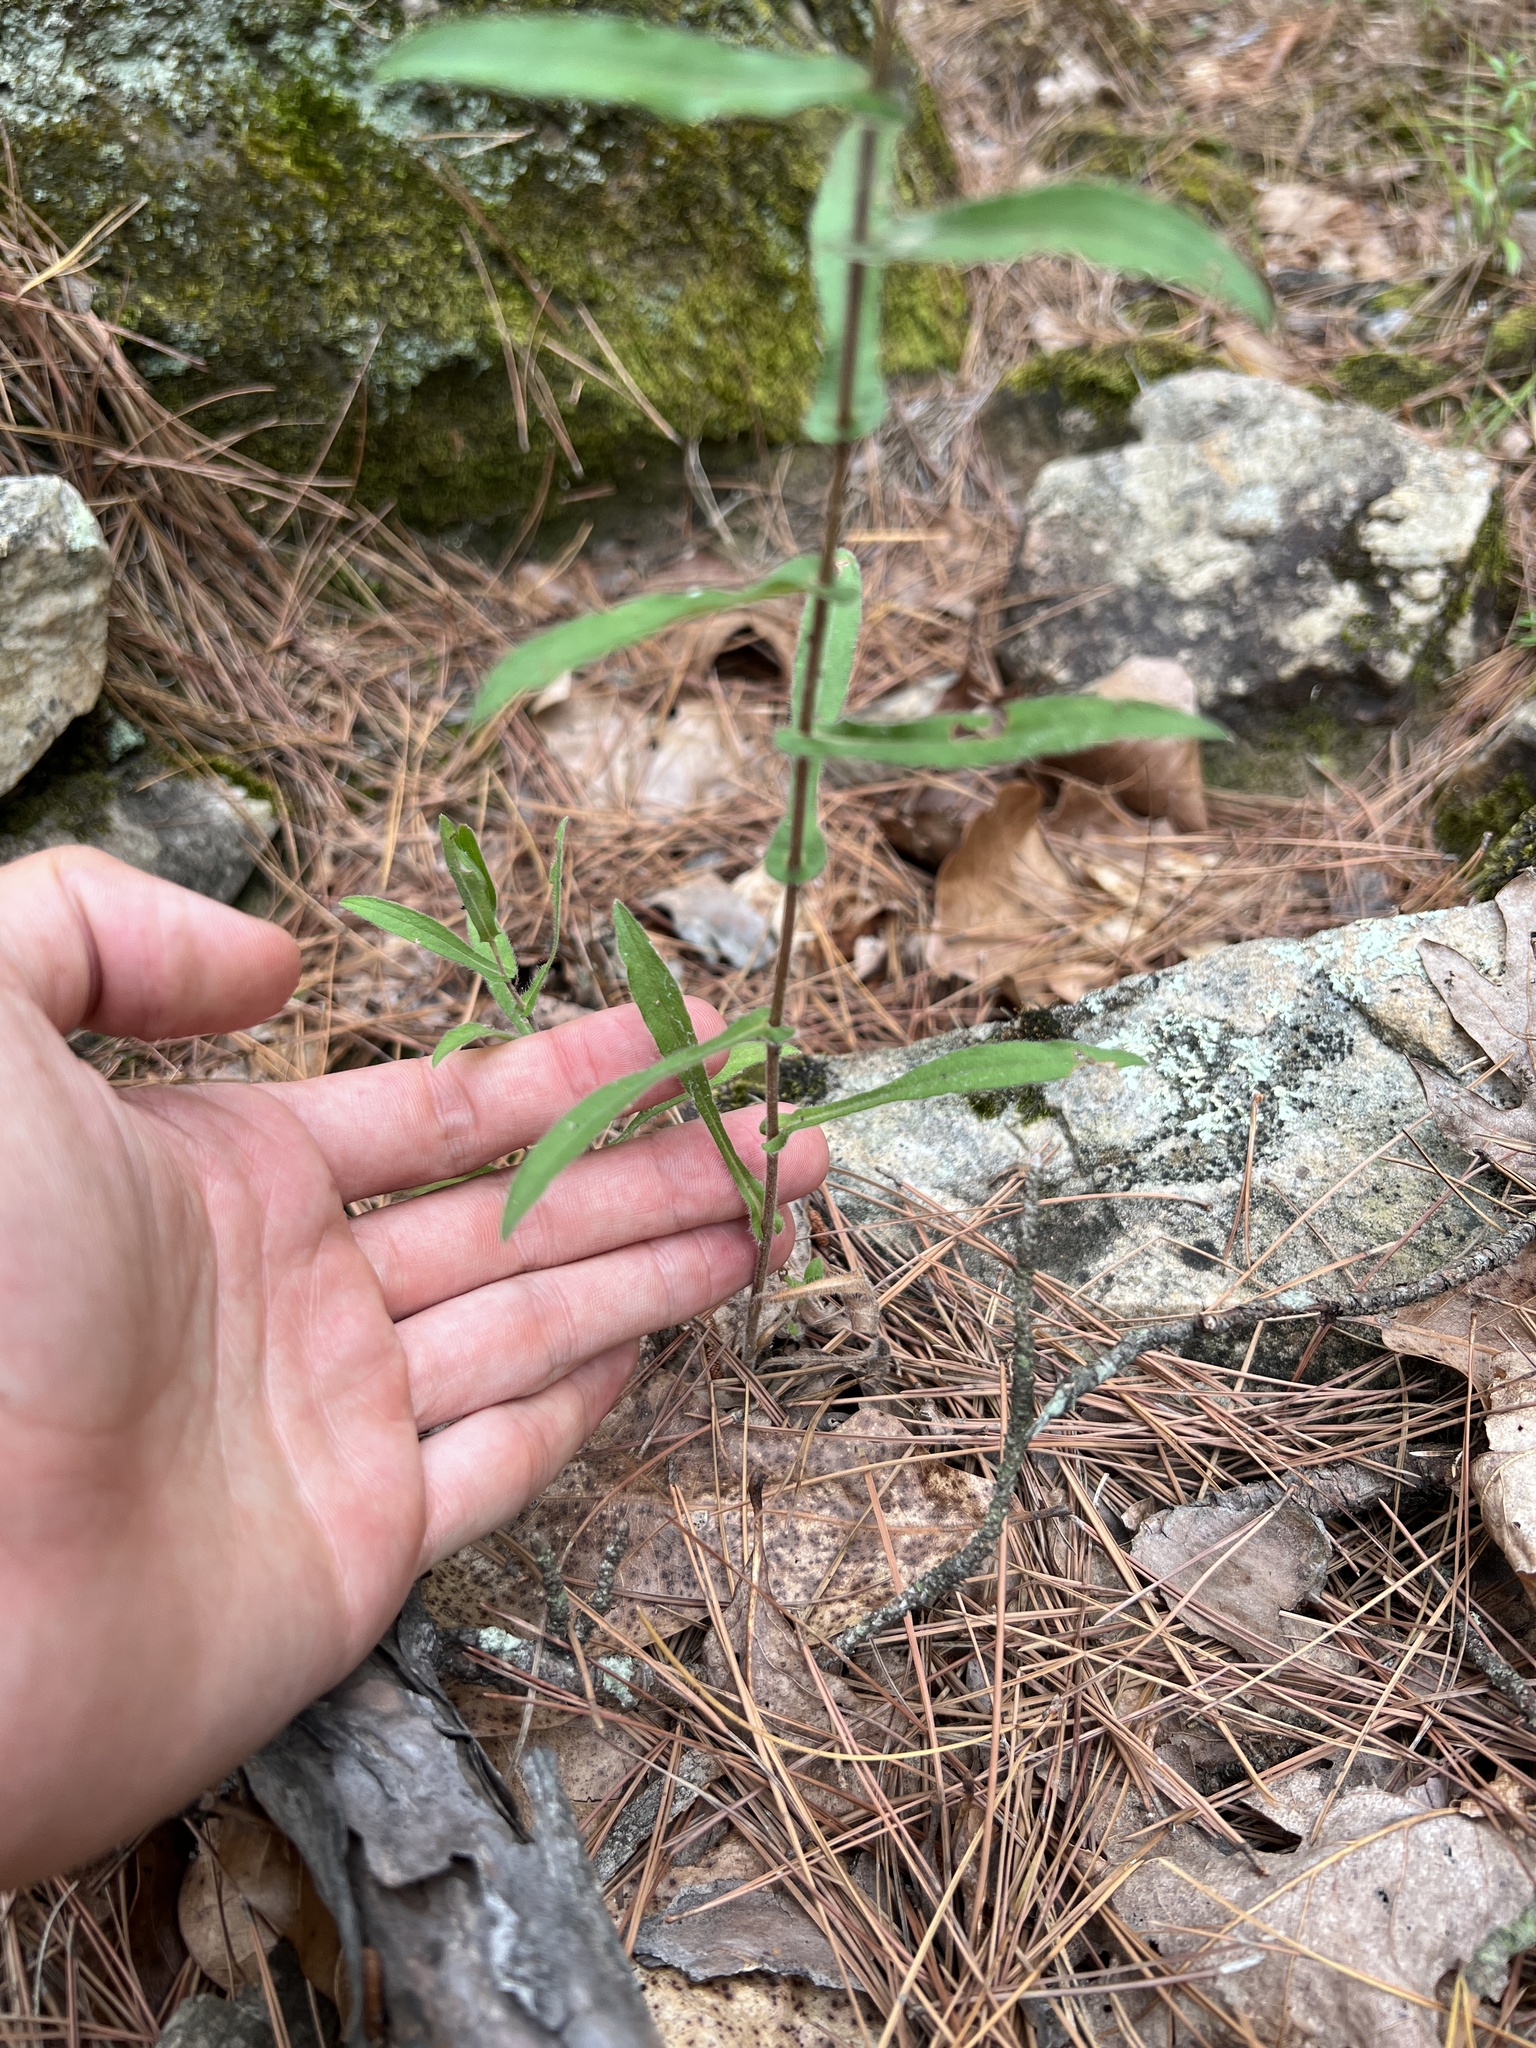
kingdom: Plantae
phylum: Tracheophyta
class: Magnoliopsida
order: Asterales
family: Asteraceae
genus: Symphyotrichum
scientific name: Symphyotrichum patens
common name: Late purple aster
